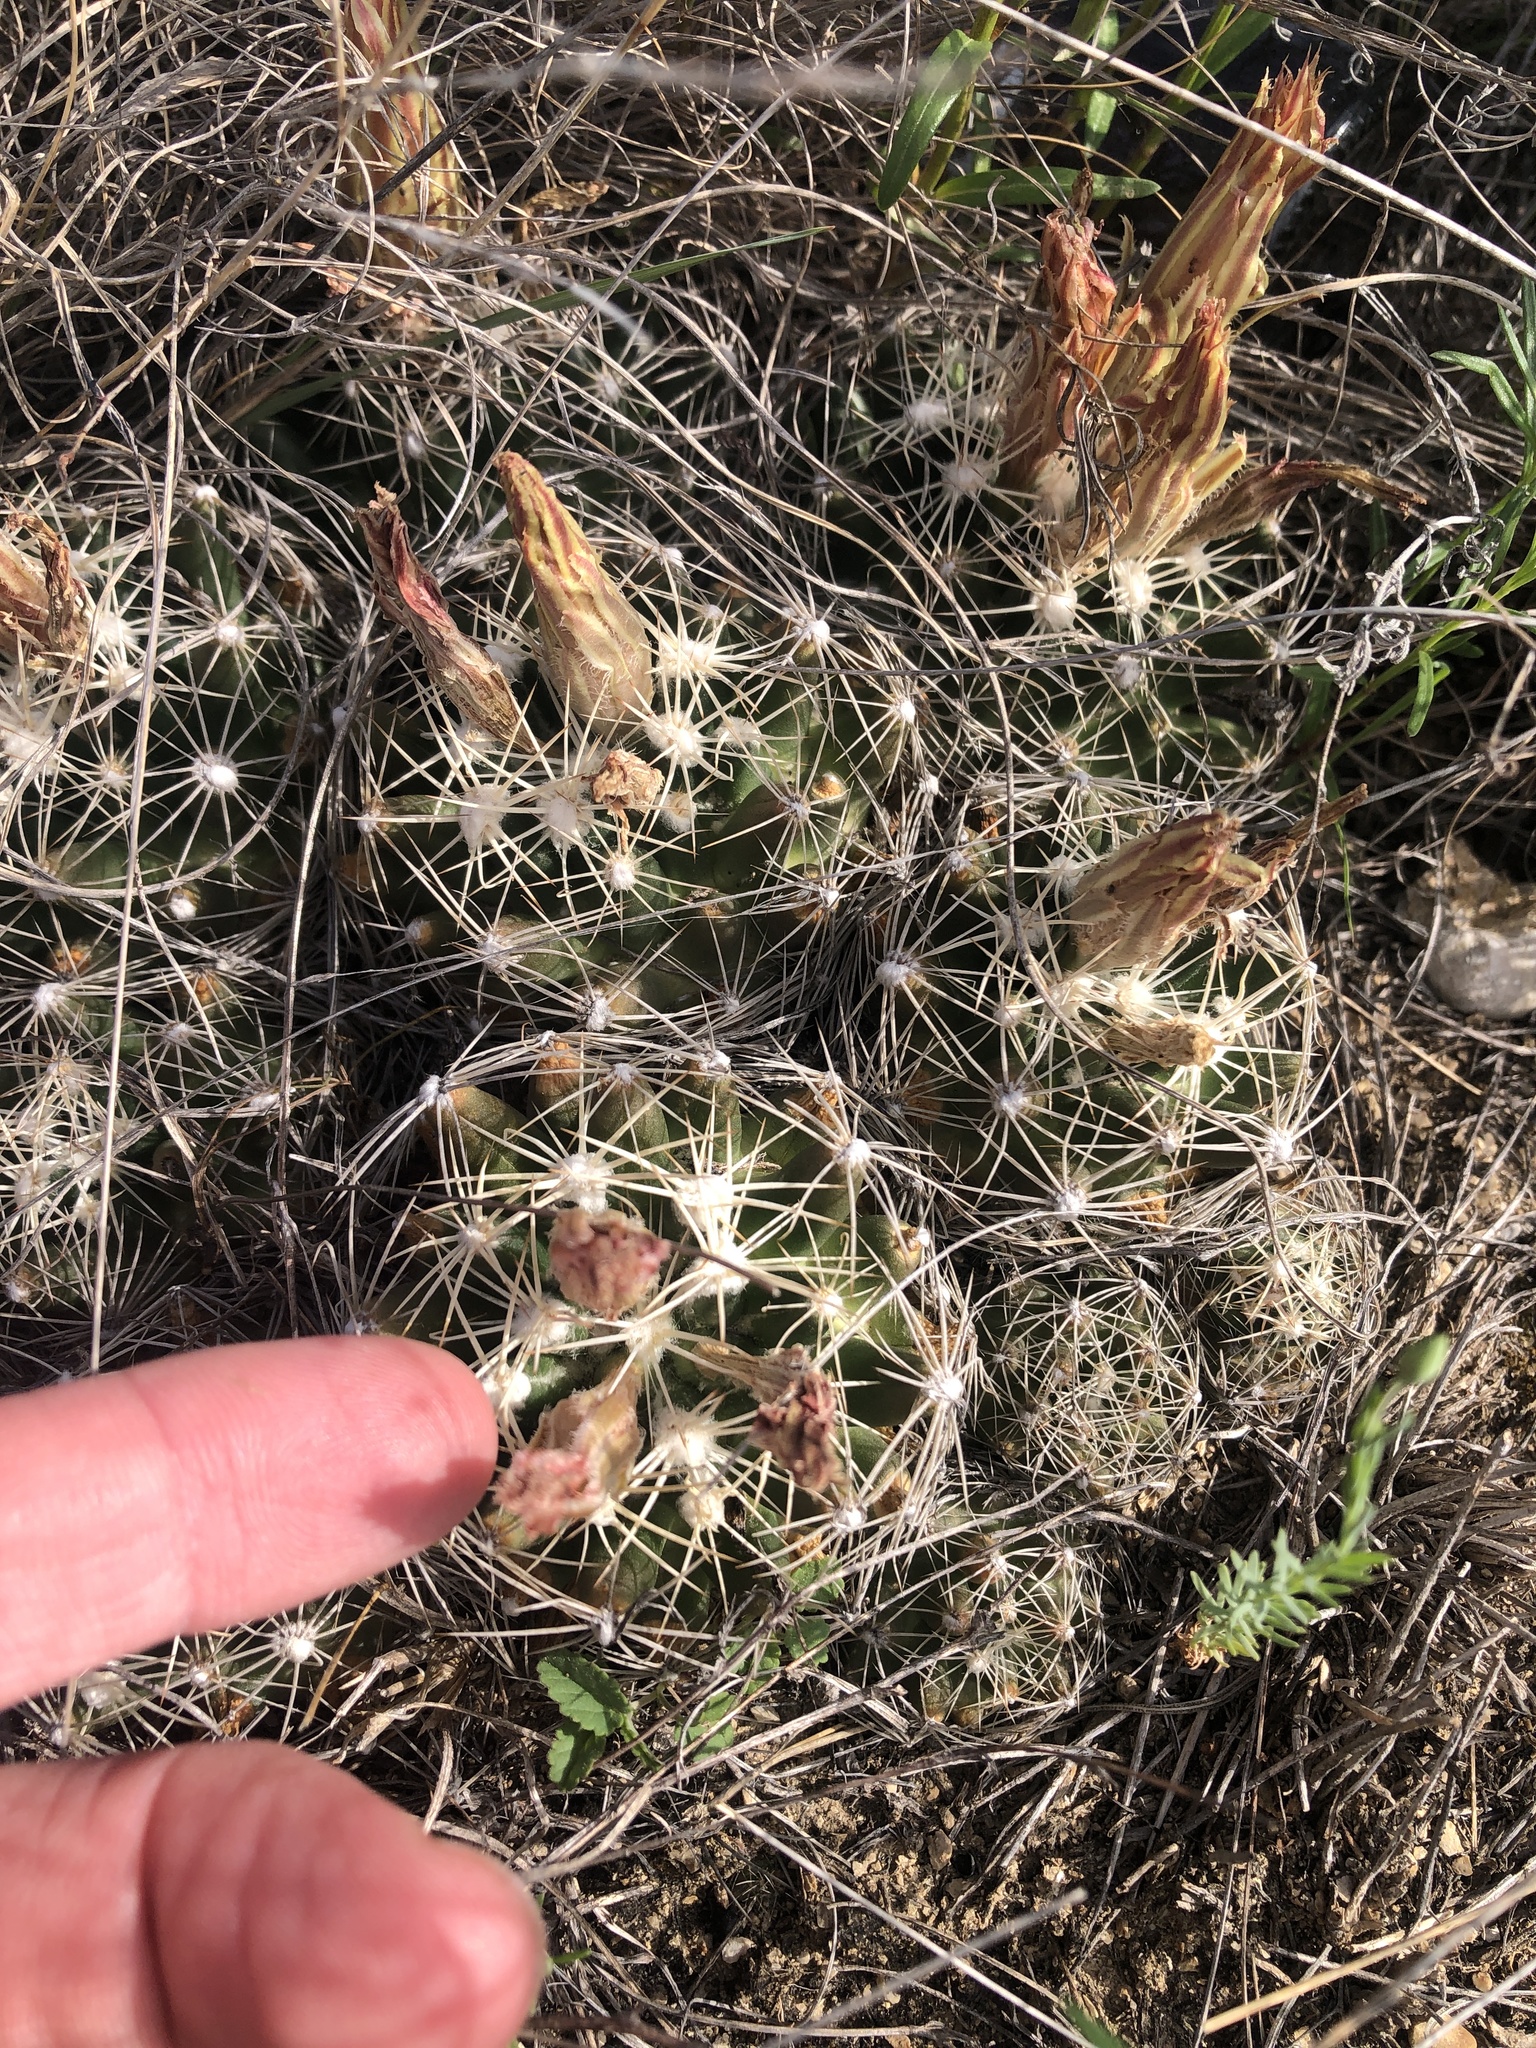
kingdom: Plantae
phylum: Tracheophyta
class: Magnoliopsida
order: Caryophyllales
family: Cactaceae
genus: Pelecyphora
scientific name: Pelecyphora missouriensis
